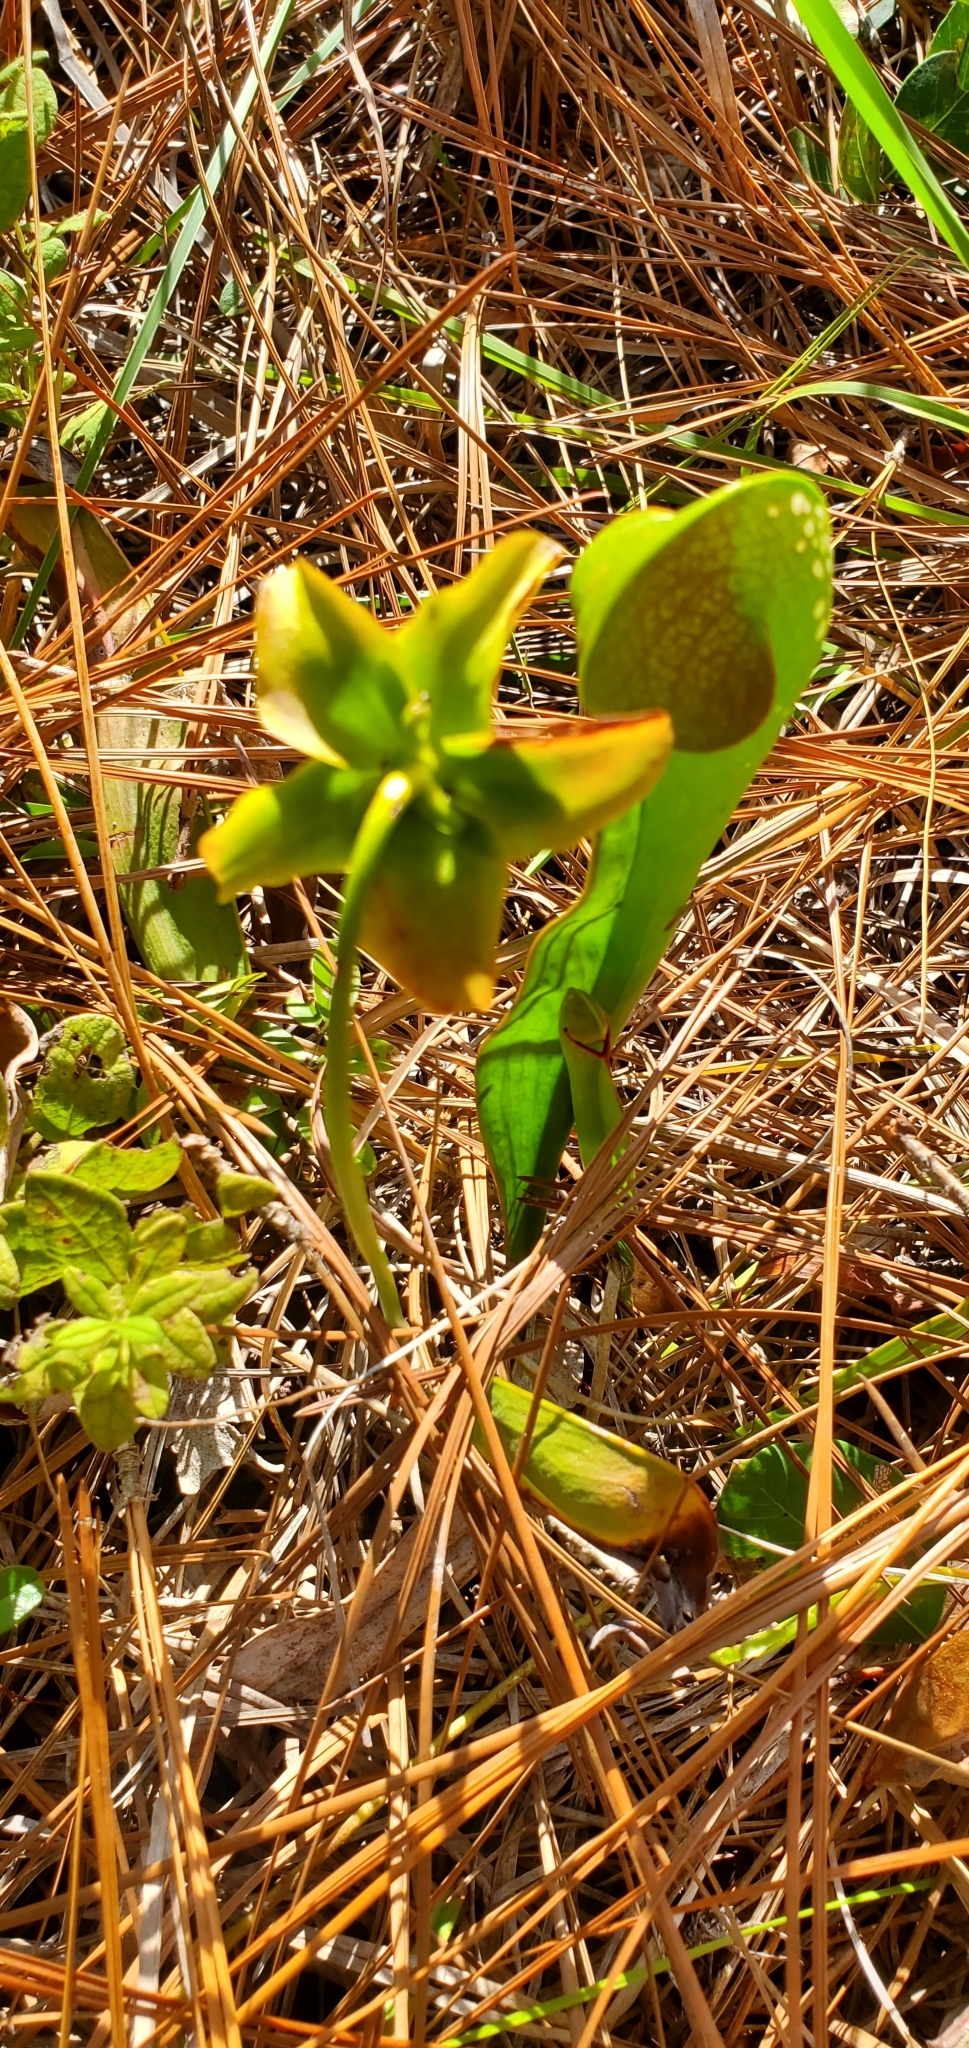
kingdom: Plantae
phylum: Tracheophyta
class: Magnoliopsida
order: Ericales
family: Sarraceniaceae
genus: Sarracenia
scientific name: Sarracenia minor
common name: Rainhat-trumpet
